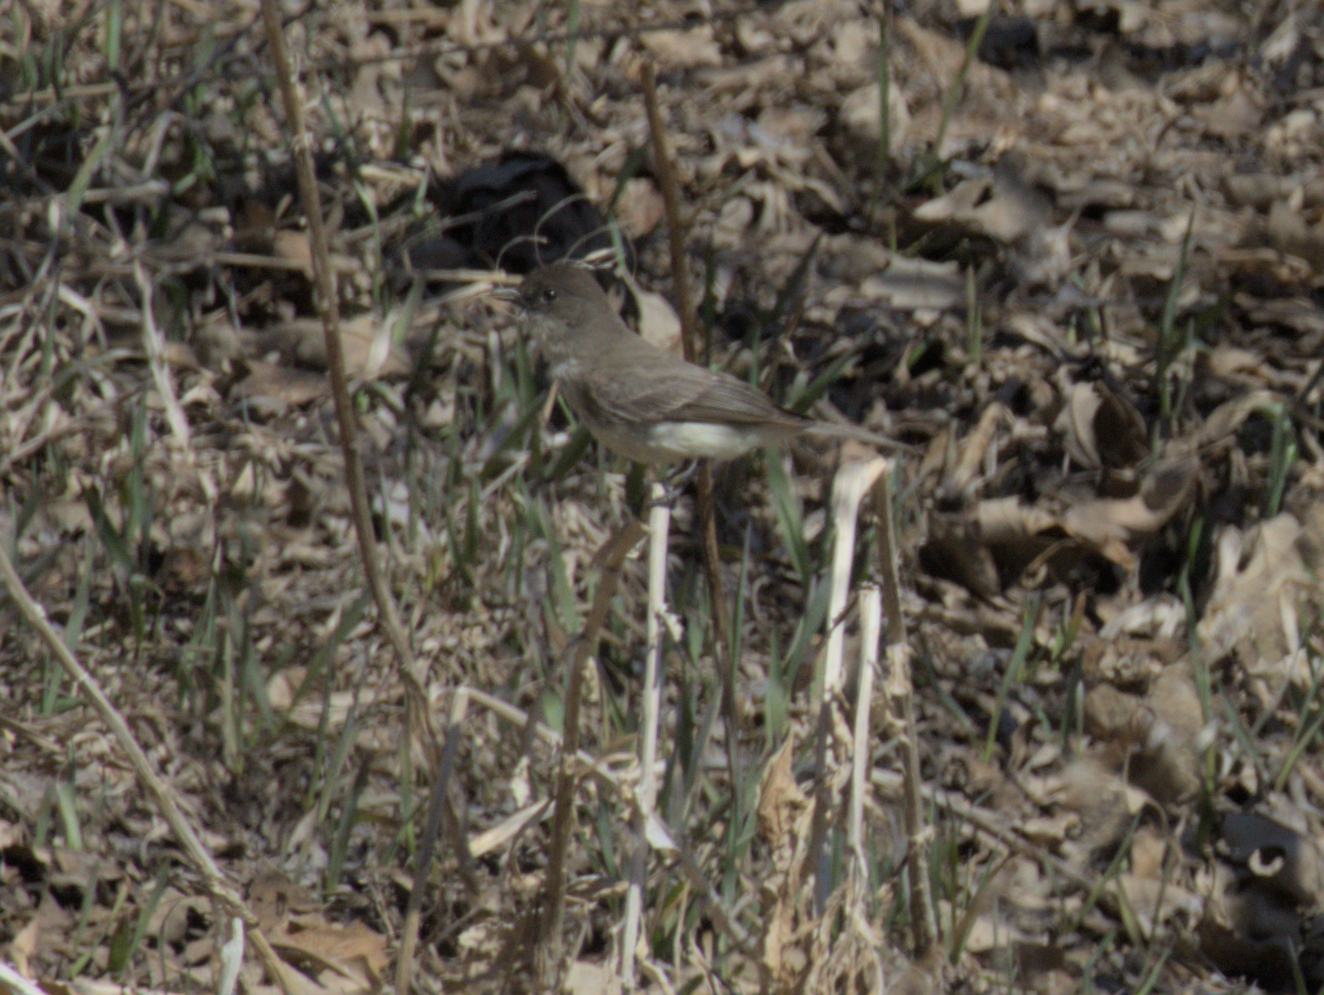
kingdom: Animalia
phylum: Chordata
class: Aves
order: Passeriformes
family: Tyrannidae
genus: Sayornis
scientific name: Sayornis phoebe
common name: Eastern phoebe
